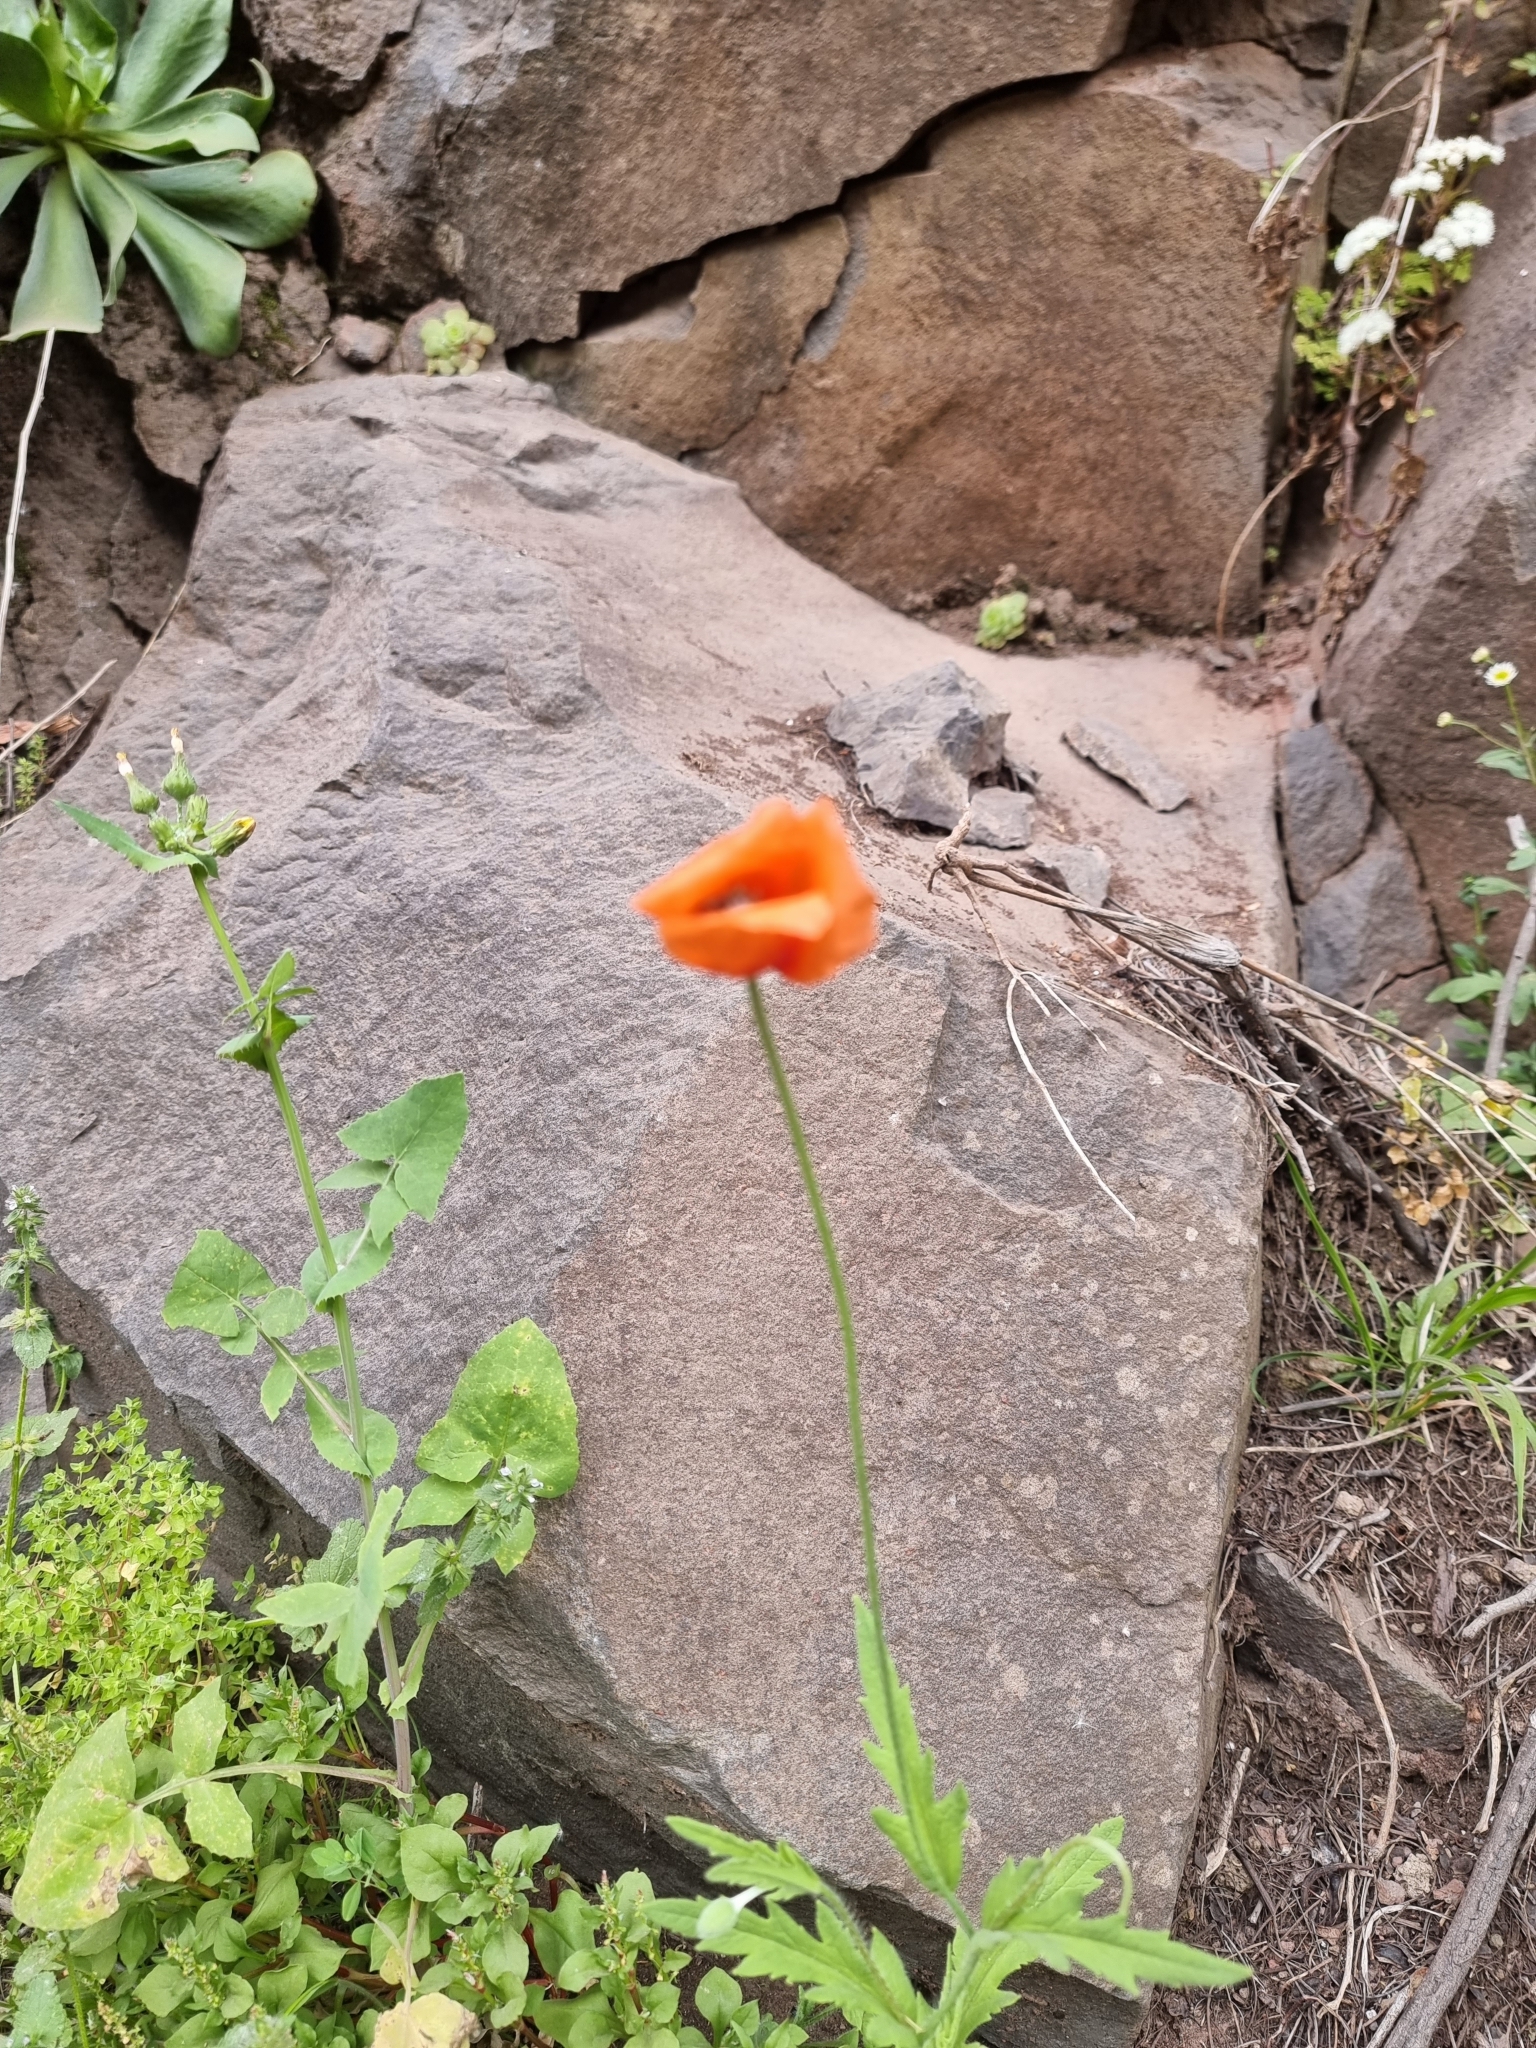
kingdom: Plantae
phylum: Tracheophyta
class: Magnoliopsida
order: Ranunculales
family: Papaveraceae
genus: Papaver
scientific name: Papaver rhoeas
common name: Corn poppy
